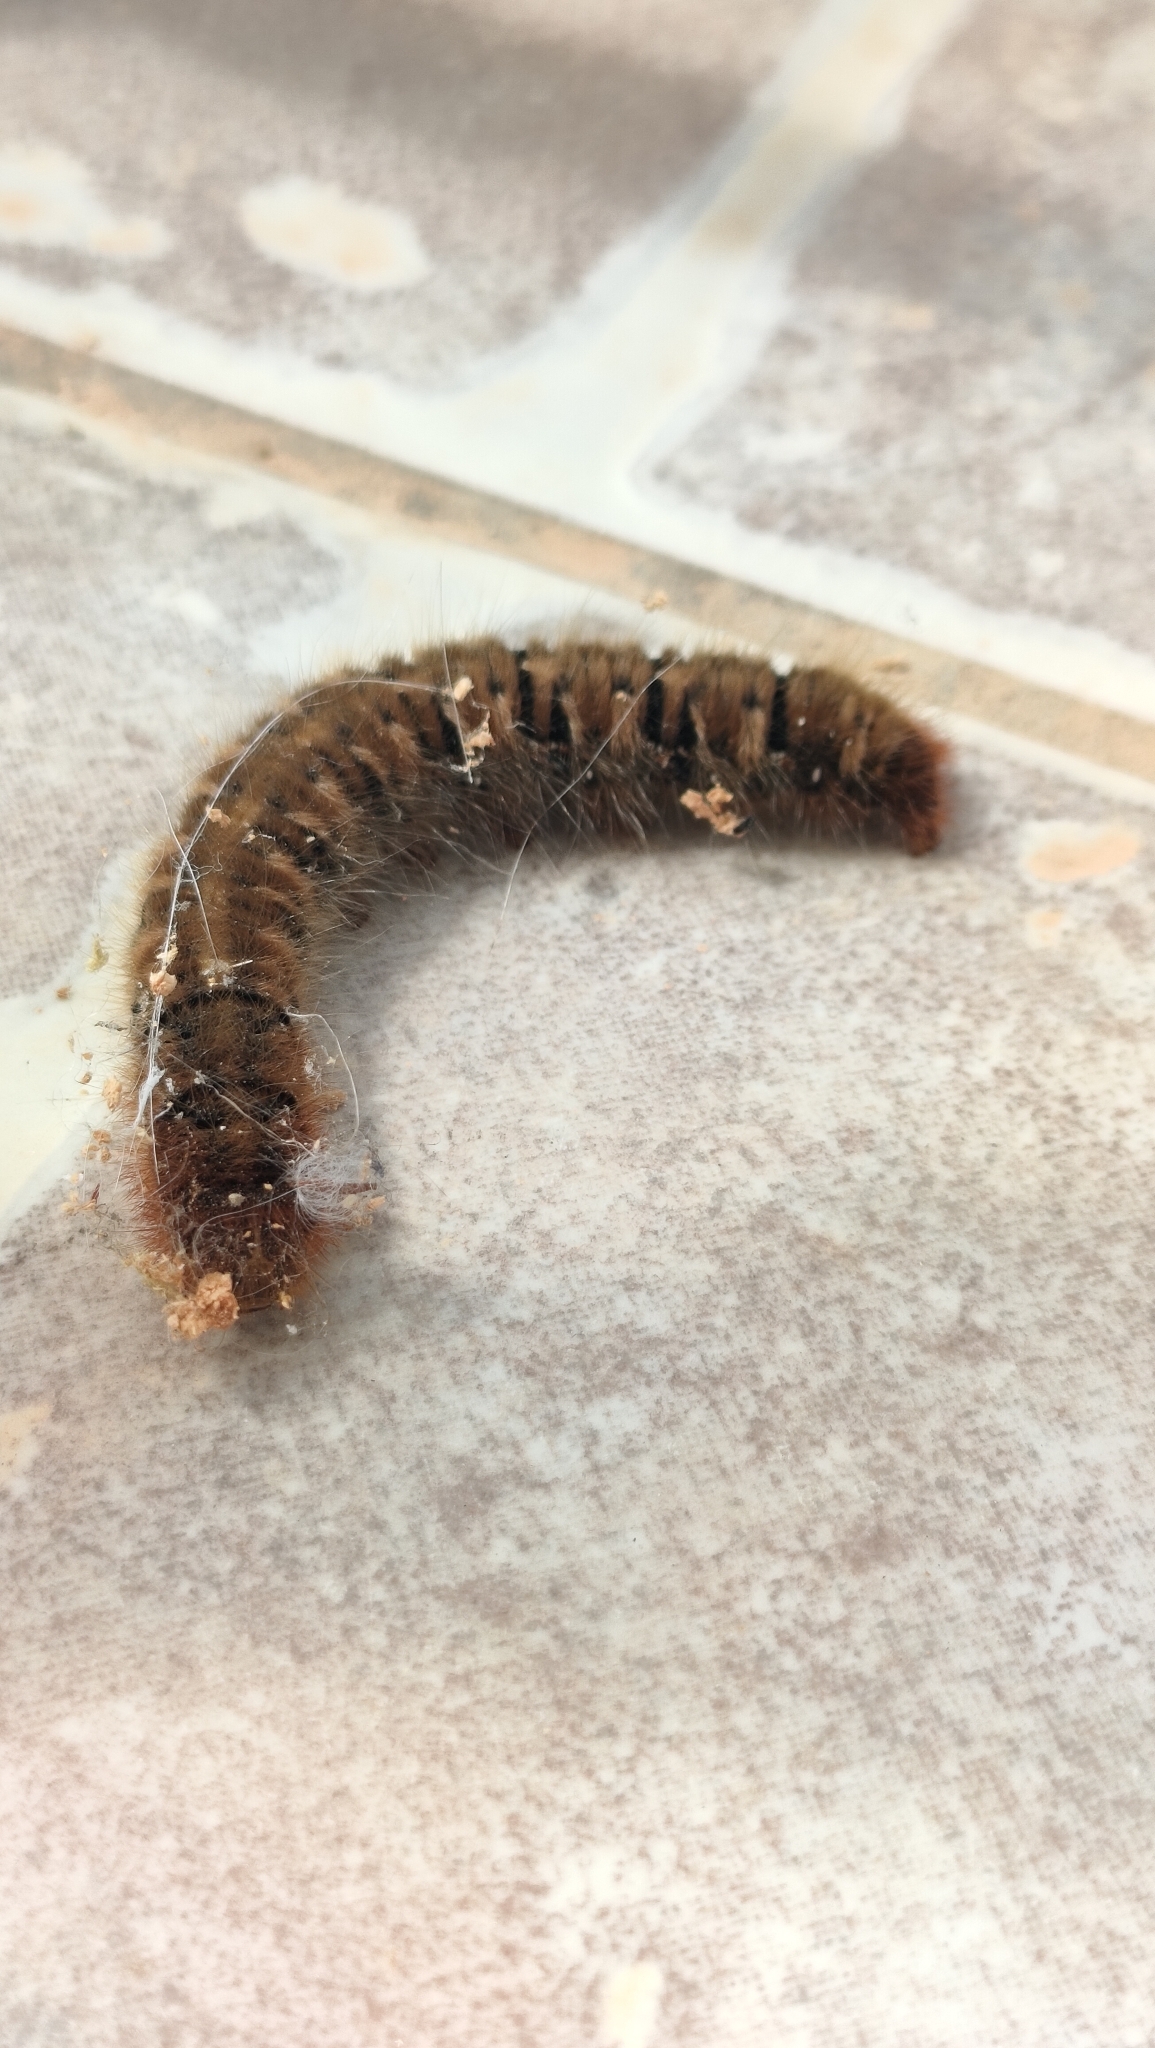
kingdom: Animalia
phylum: Arthropoda
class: Insecta
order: Lepidoptera
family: Lasiocampidae
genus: Lasiocampa
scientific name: Lasiocampa quercus
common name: Oak eggar
